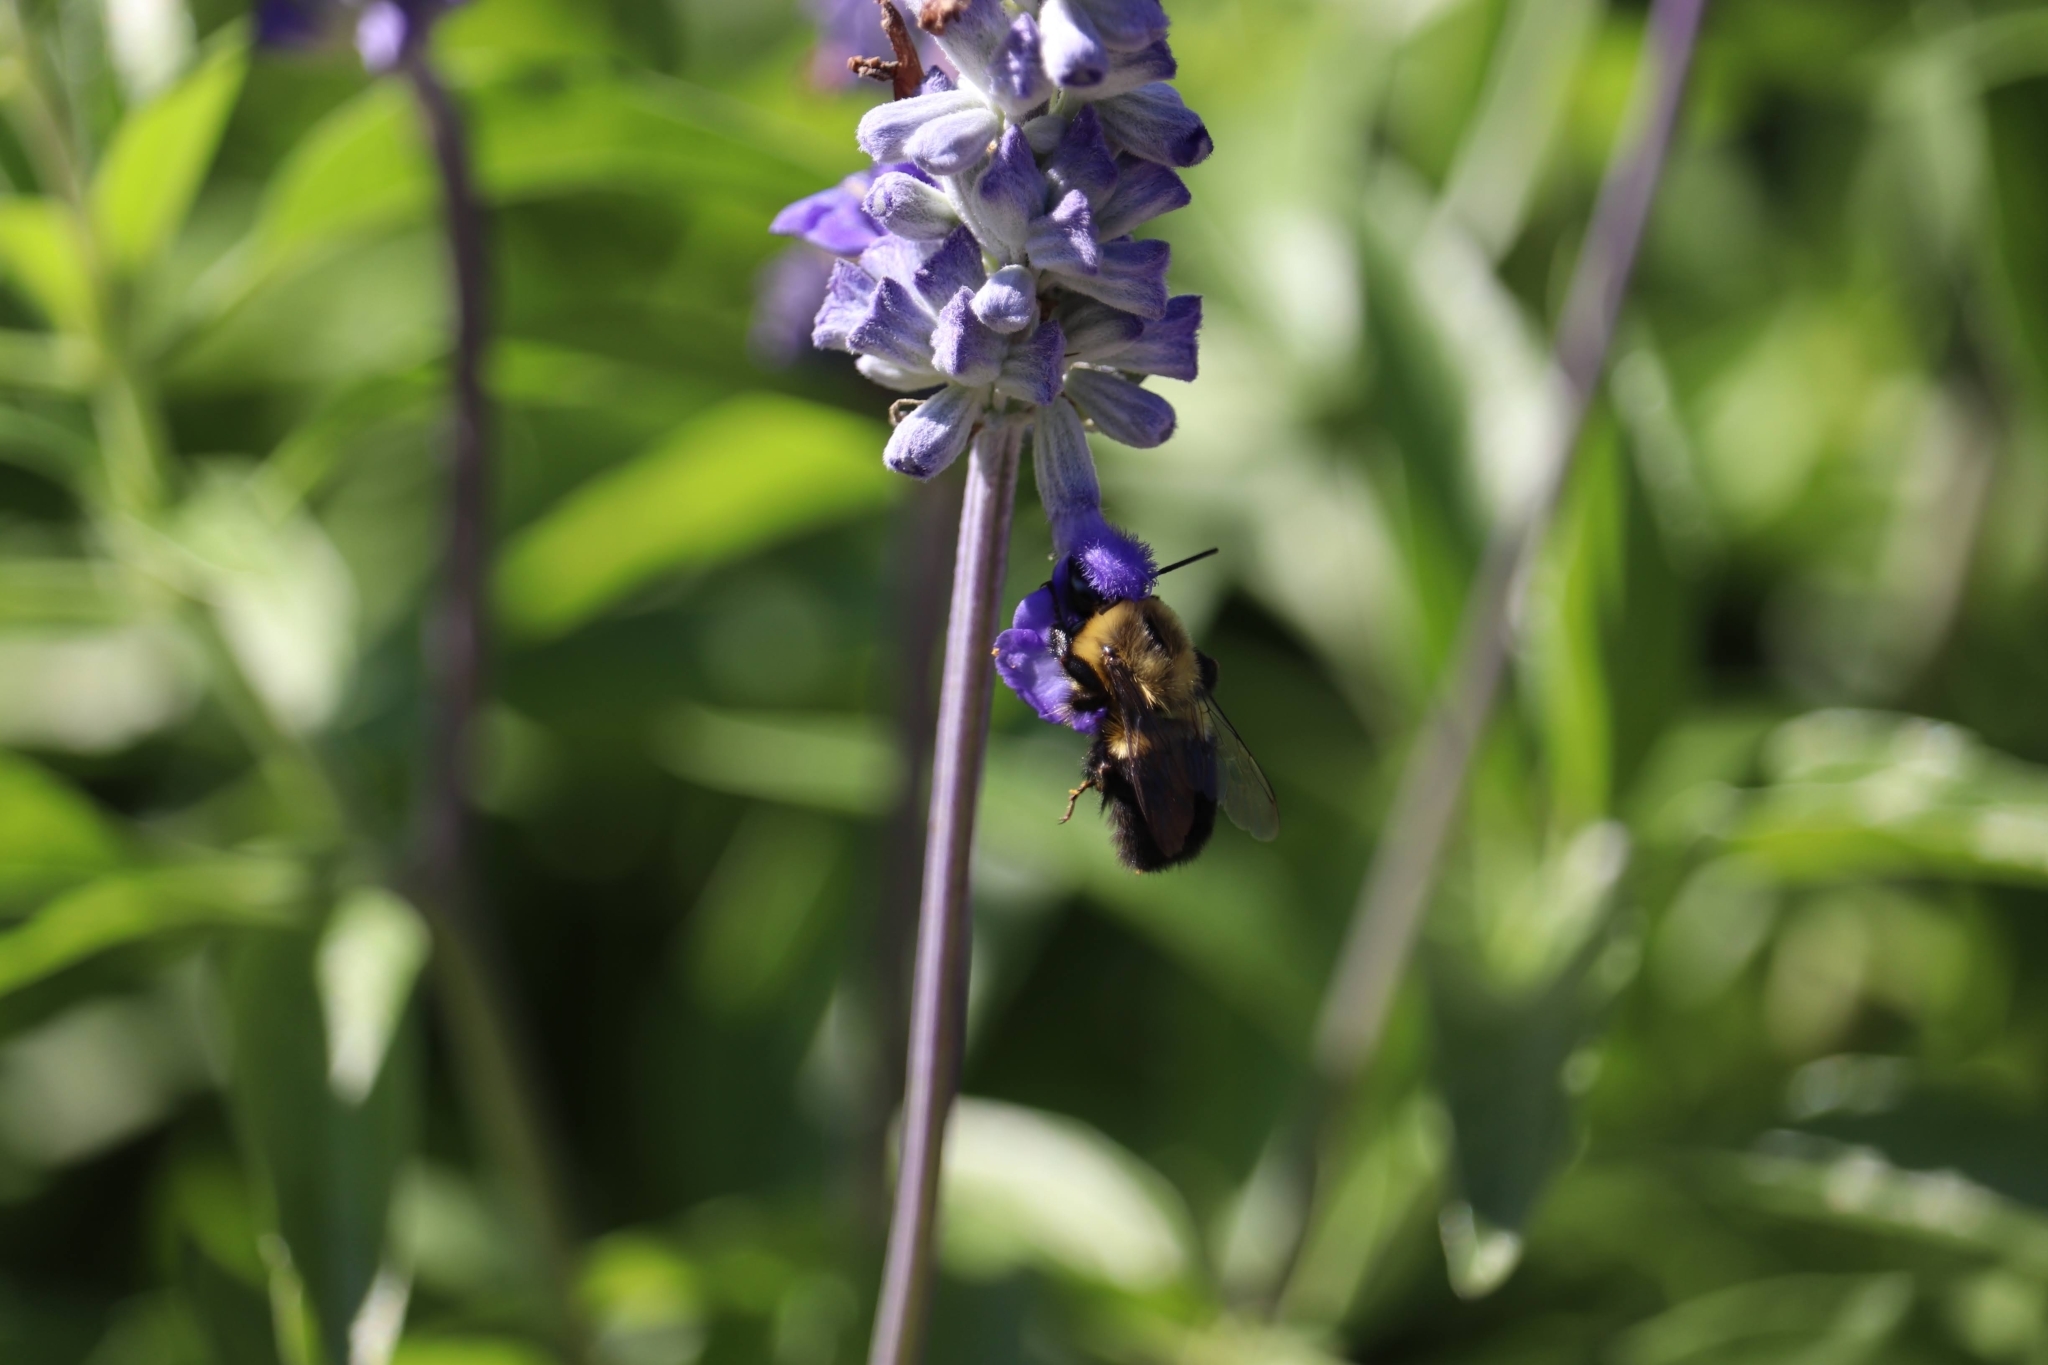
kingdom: Animalia
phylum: Arthropoda
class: Insecta
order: Hymenoptera
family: Apidae
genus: Bombus
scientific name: Bombus impatiens
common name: Common eastern bumble bee
